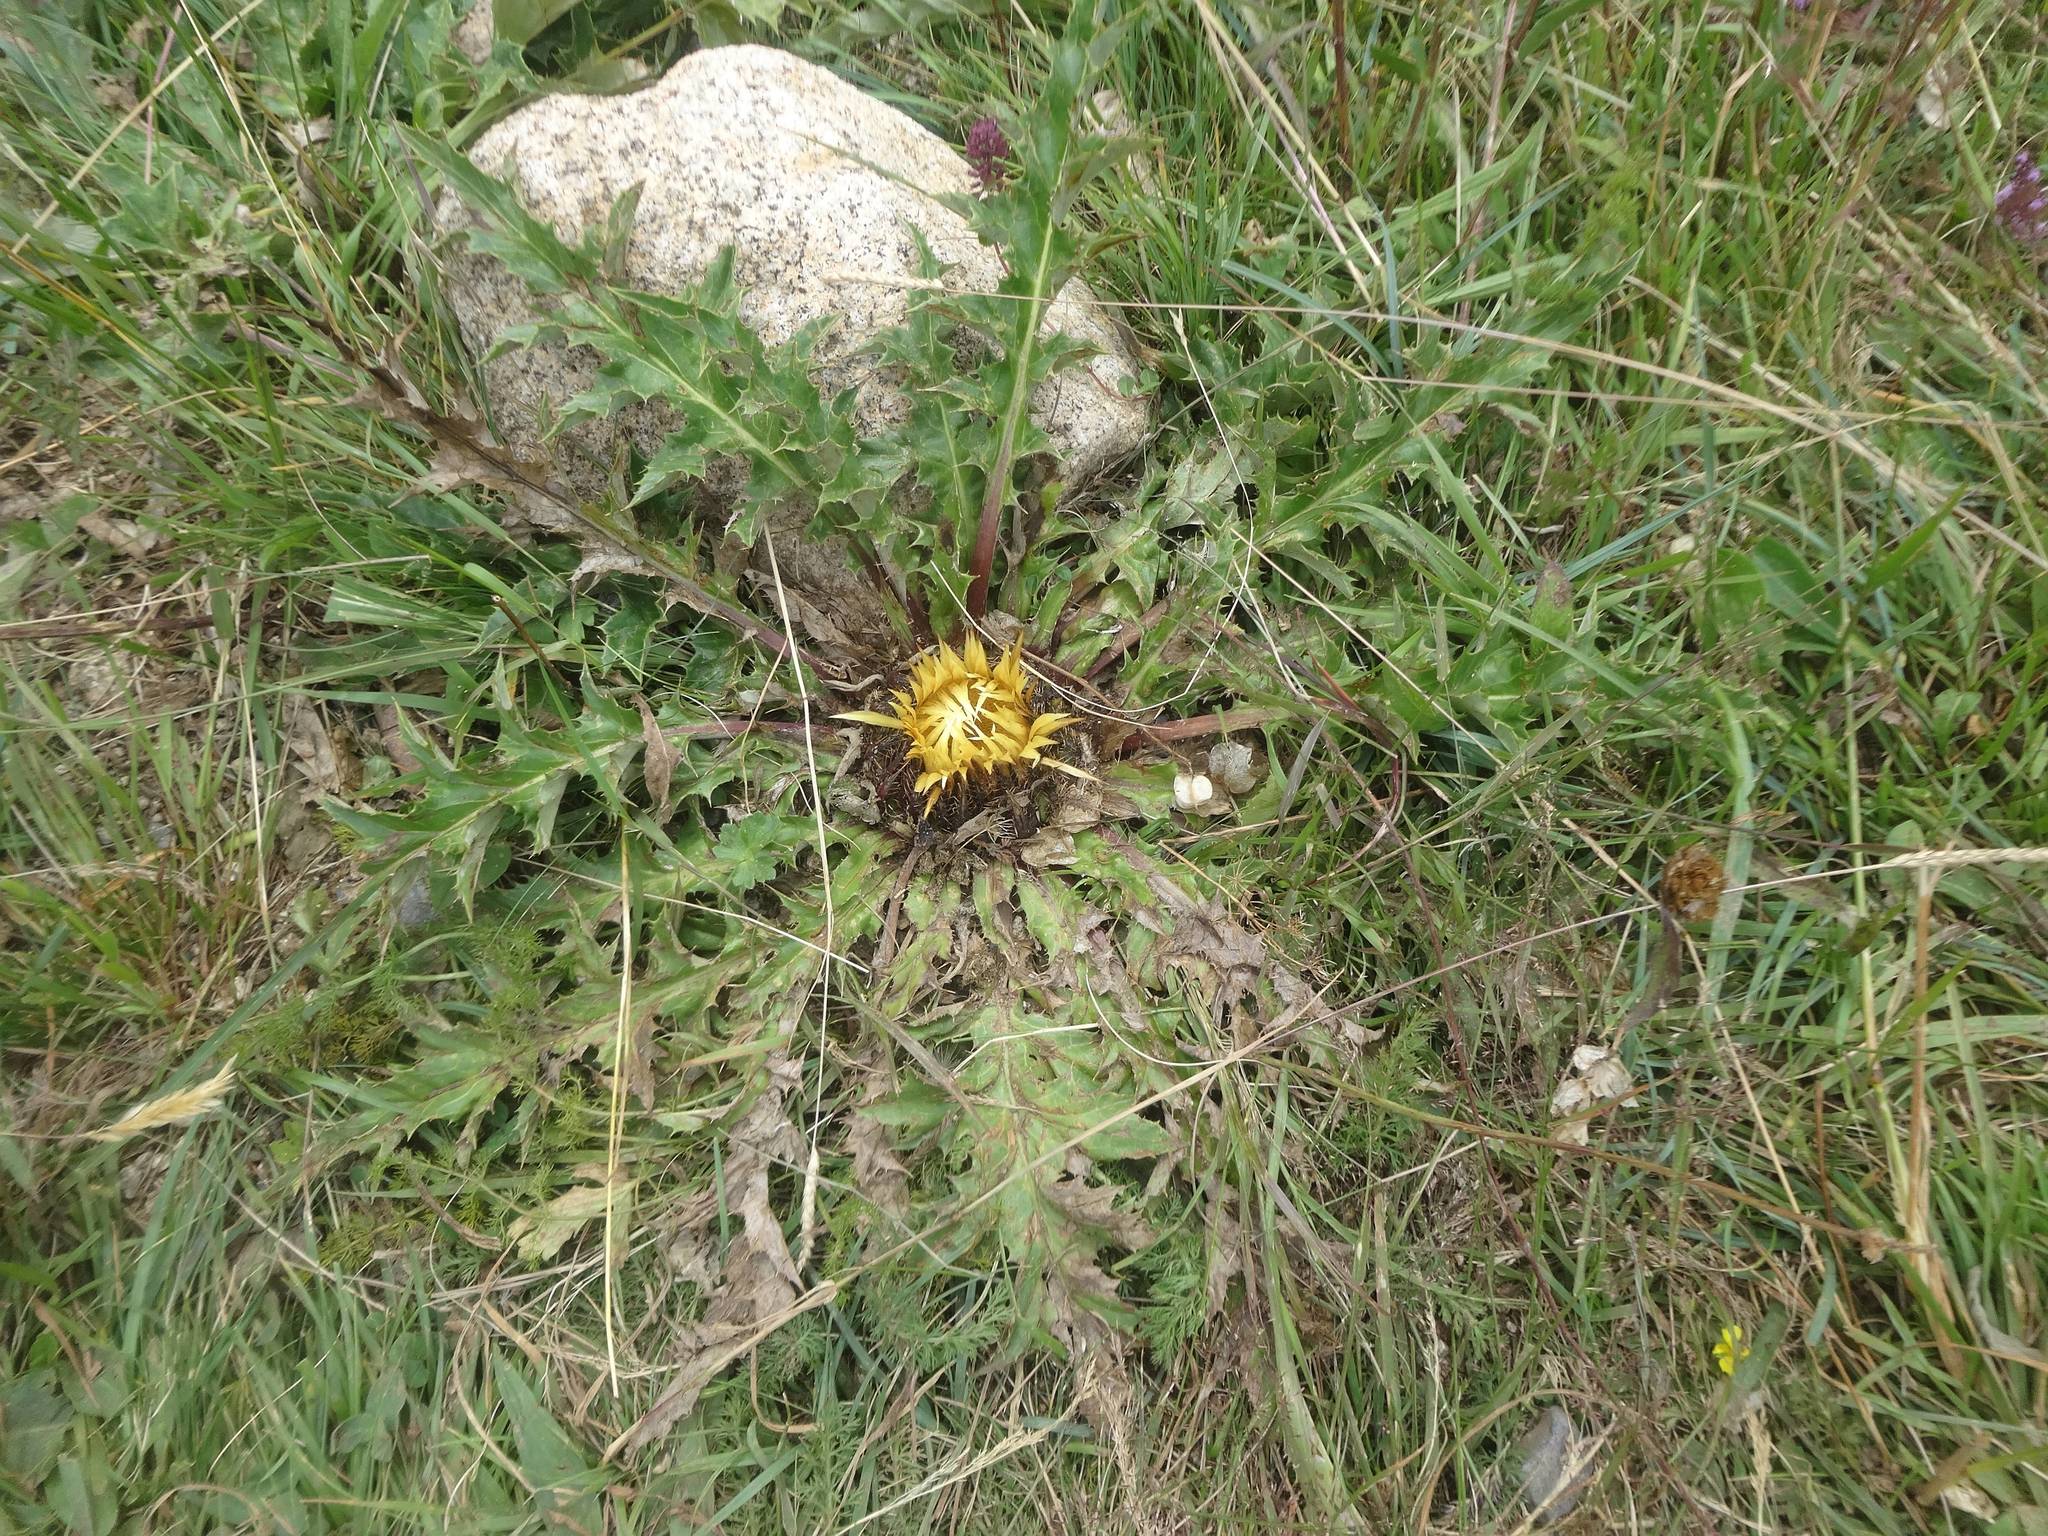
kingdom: Plantae
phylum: Tracheophyta
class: Magnoliopsida
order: Asterales
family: Asteraceae
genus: Carlina
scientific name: Carlina acanthifolia
